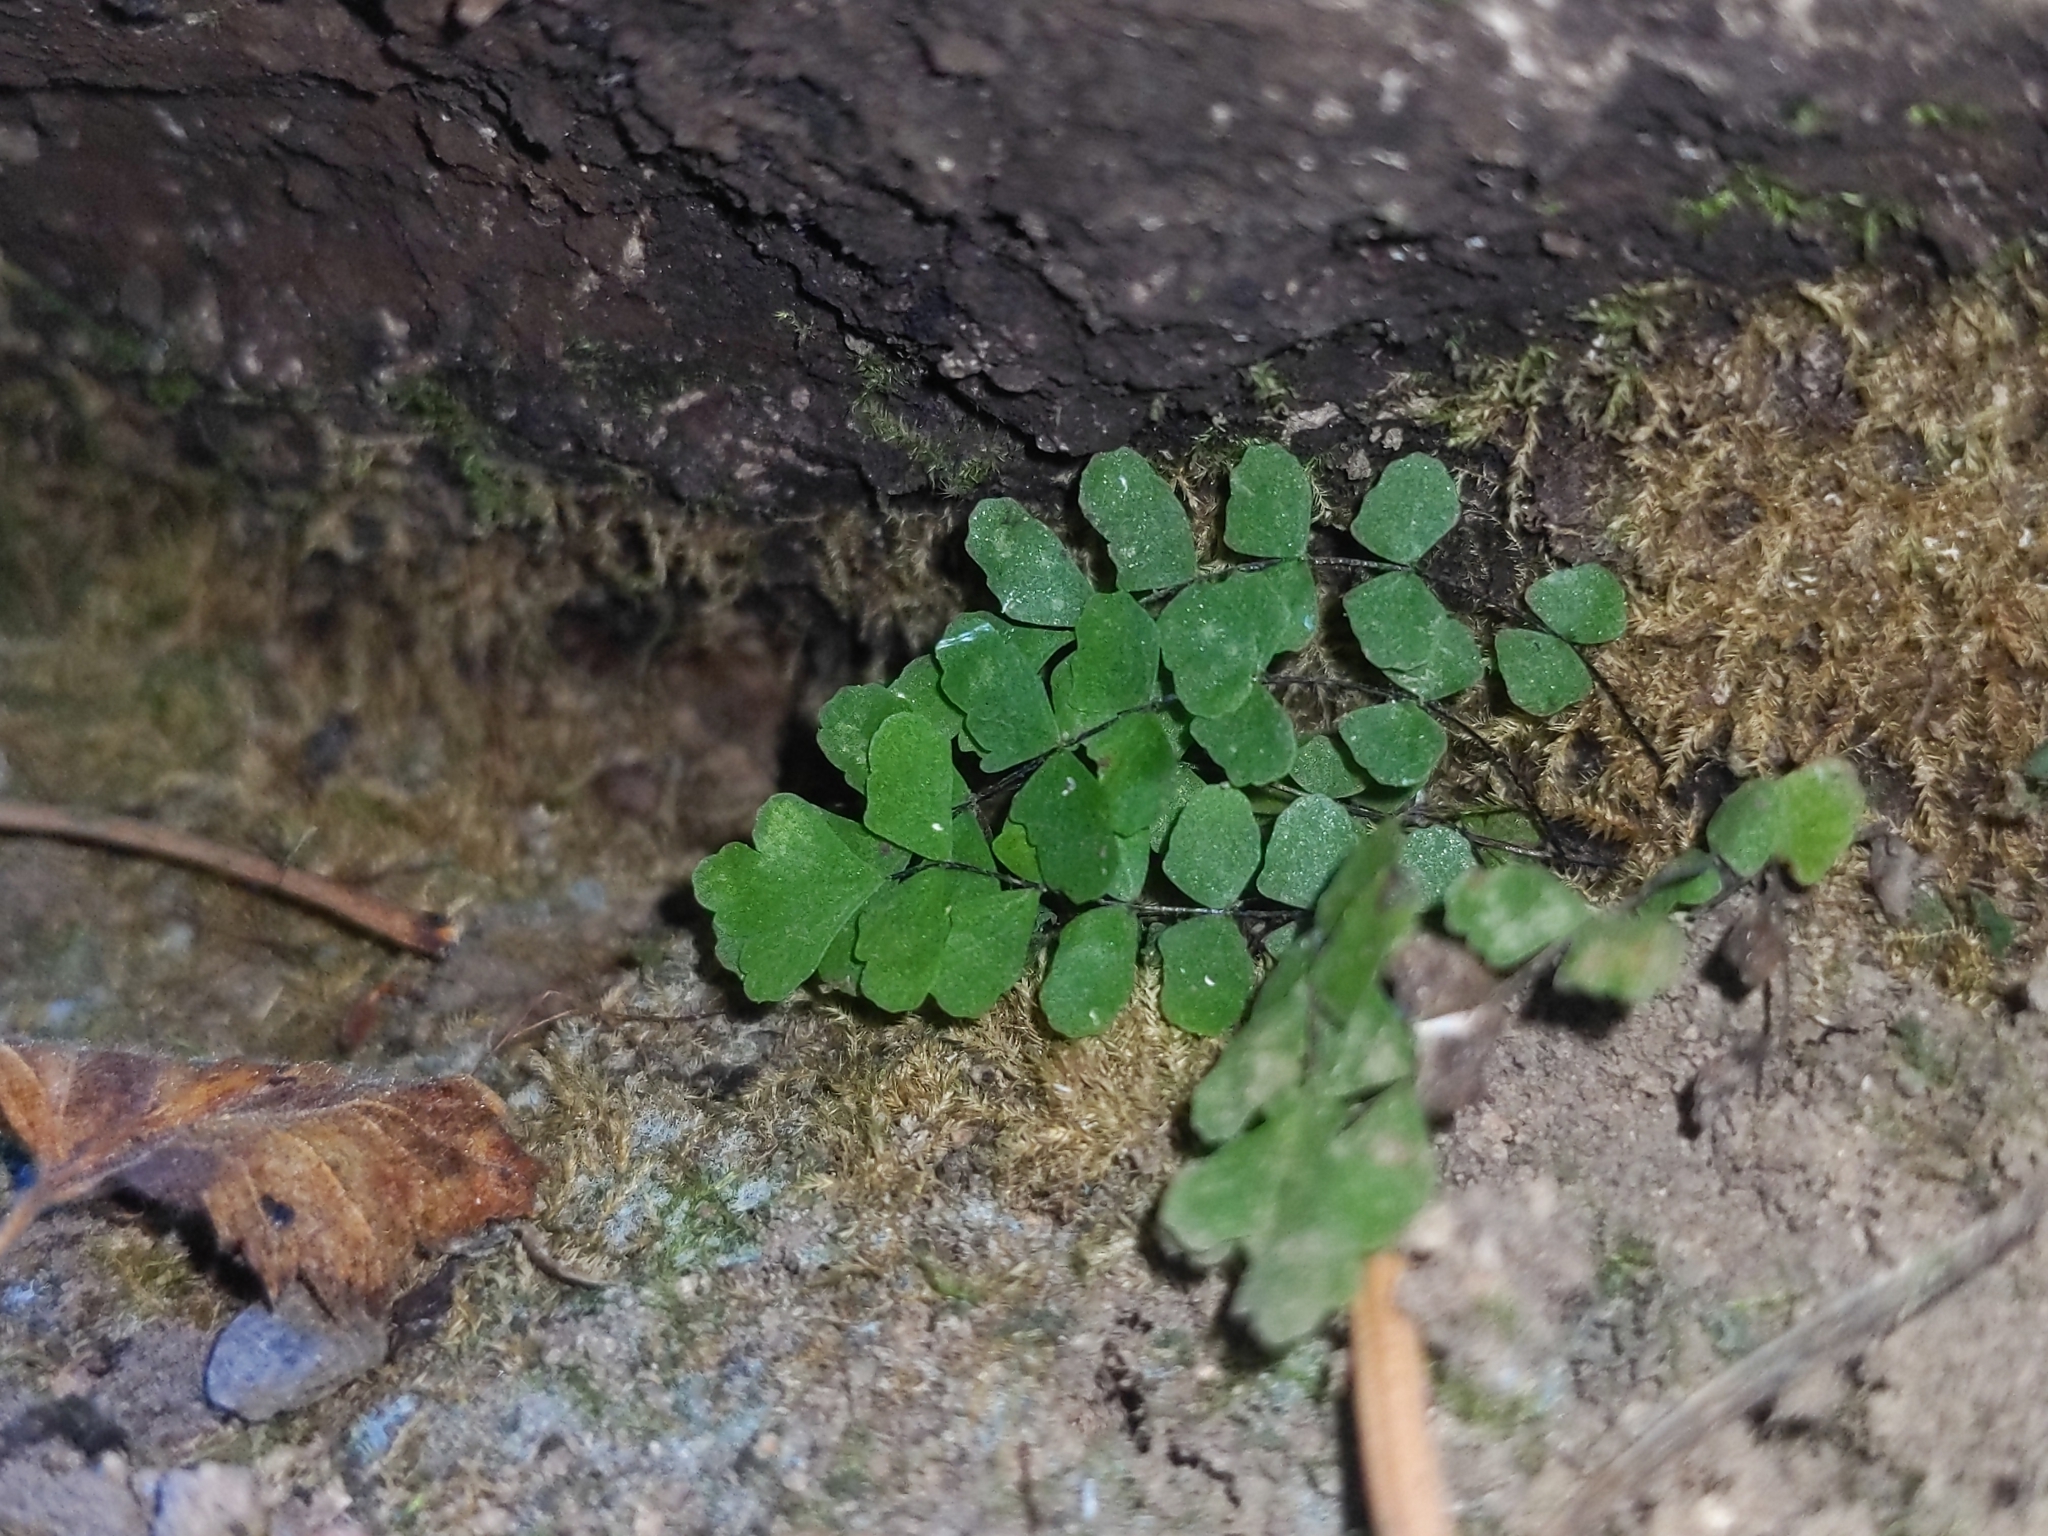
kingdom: Plantae
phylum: Tracheophyta
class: Polypodiopsida
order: Polypodiales
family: Pteridaceae
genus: Adiantum
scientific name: Adiantum capillus-veneris
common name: Maidenhair fern
